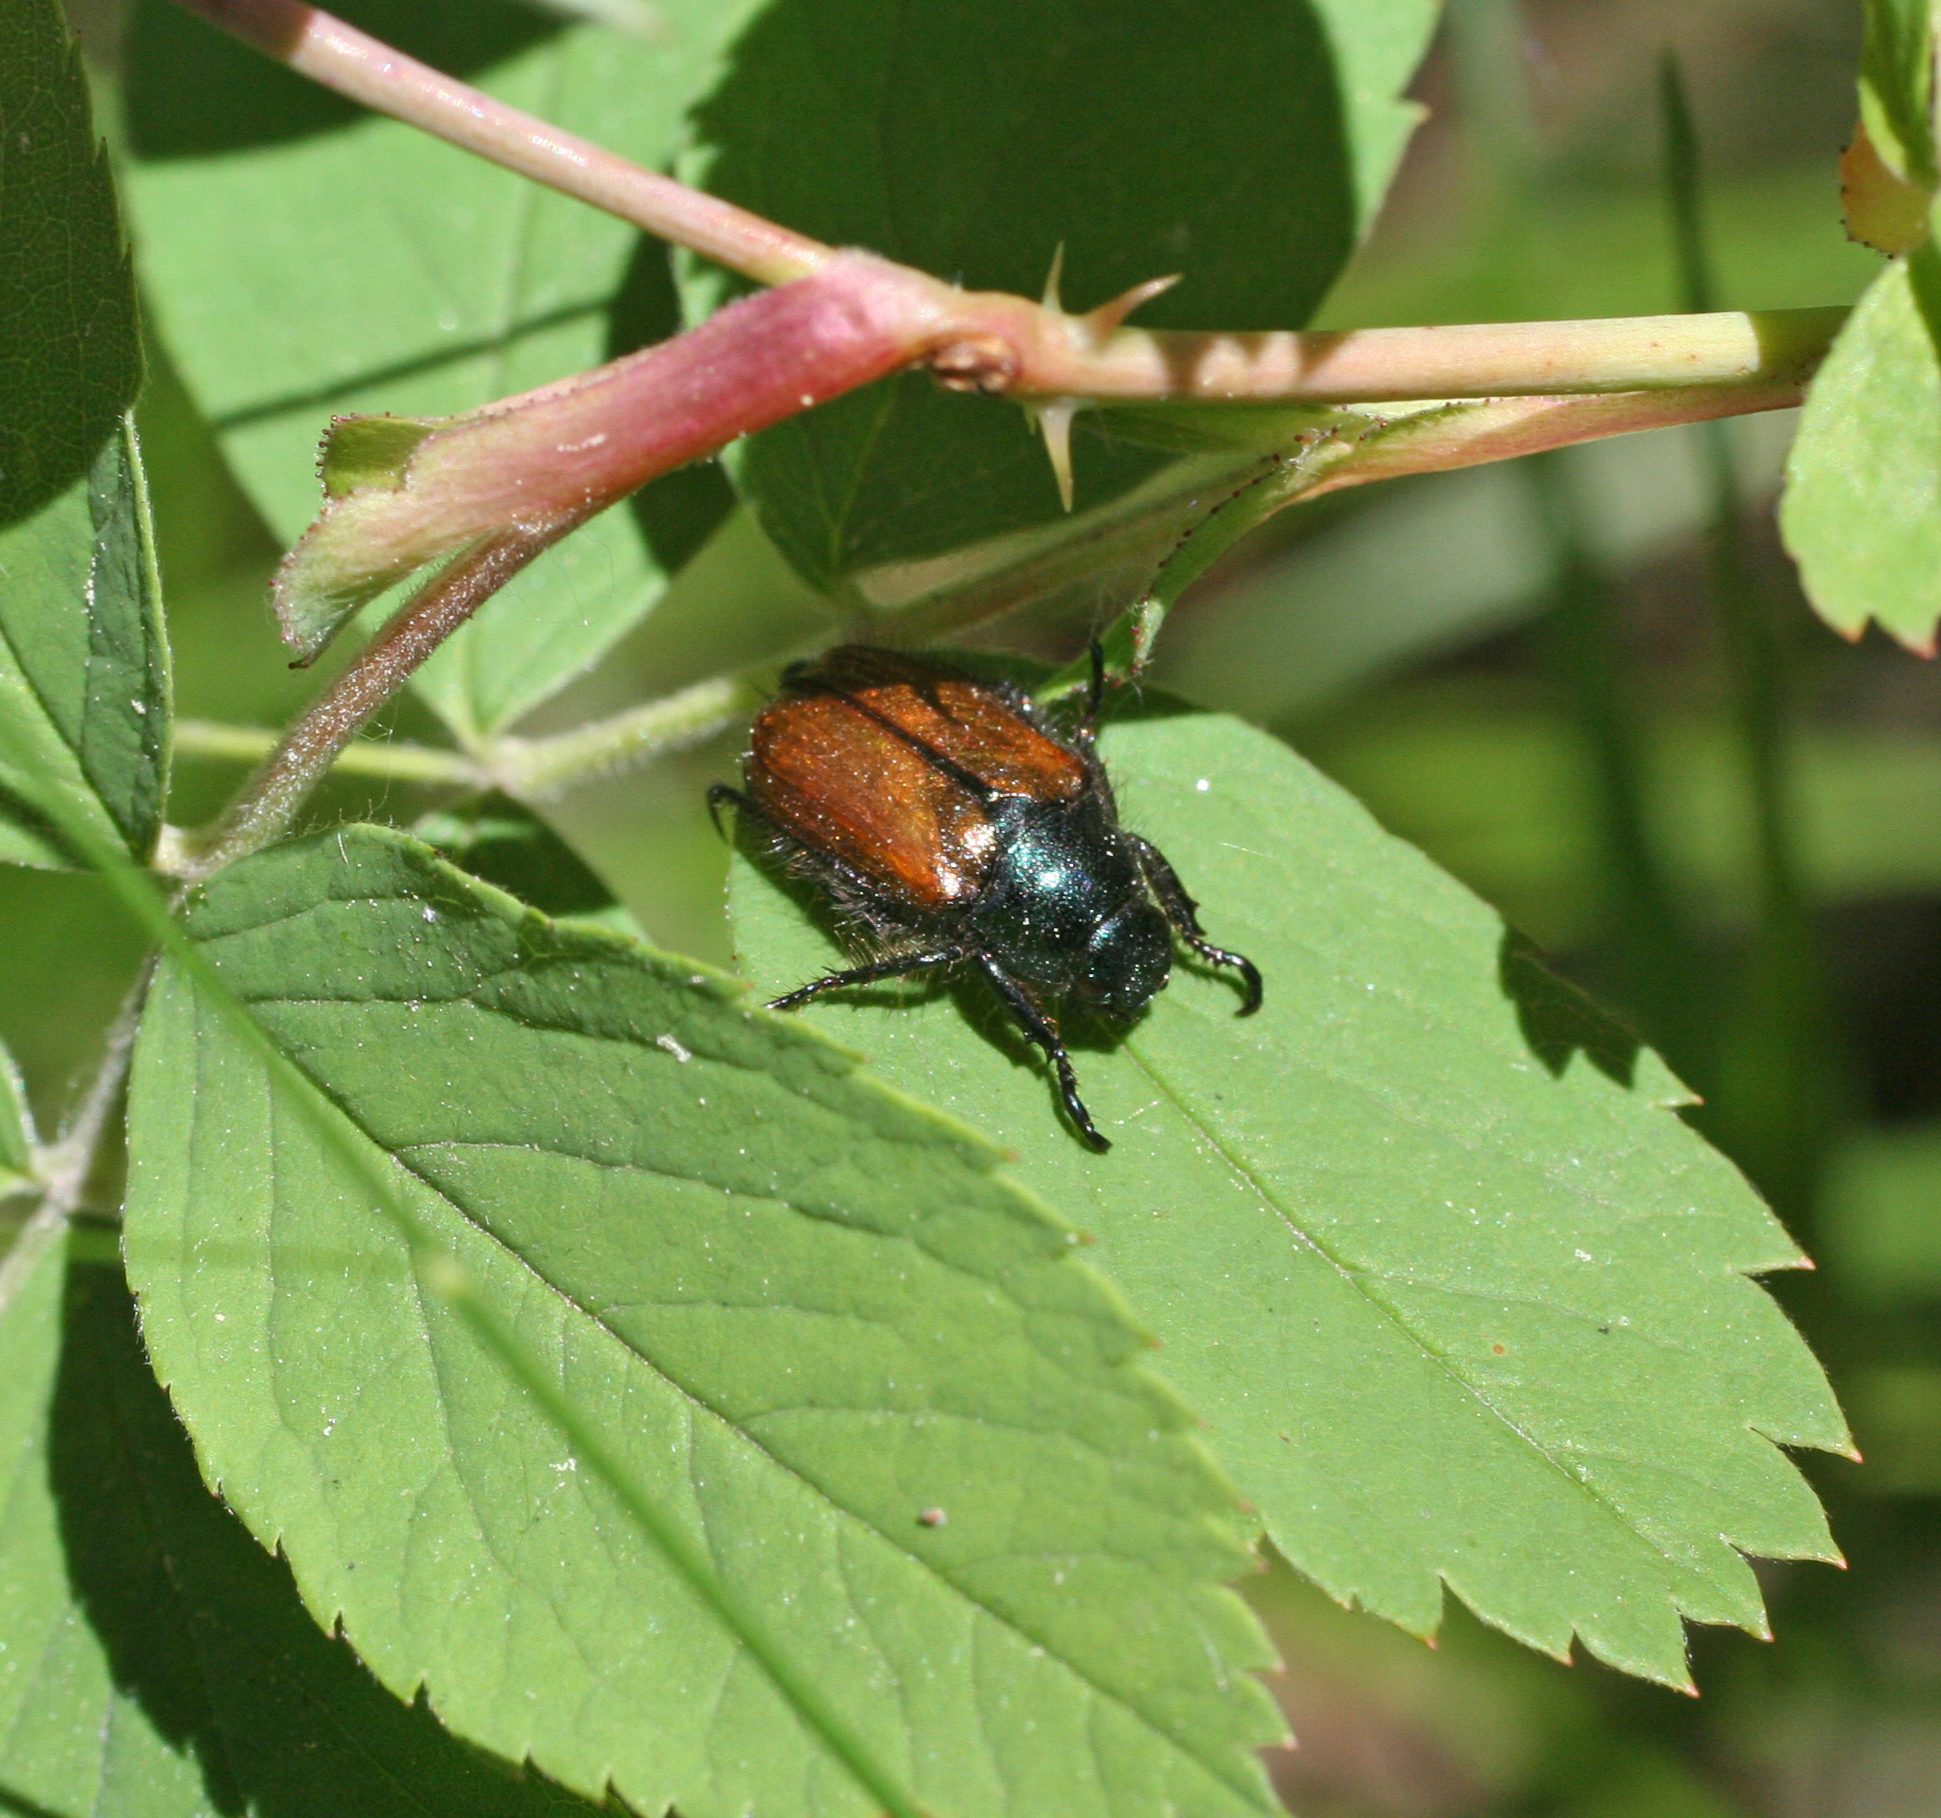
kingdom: Animalia
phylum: Arthropoda
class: Insecta
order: Coleoptera
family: Scarabaeidae
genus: Phyllopertha
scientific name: Phyllopertha horticola
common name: Garden chafer
